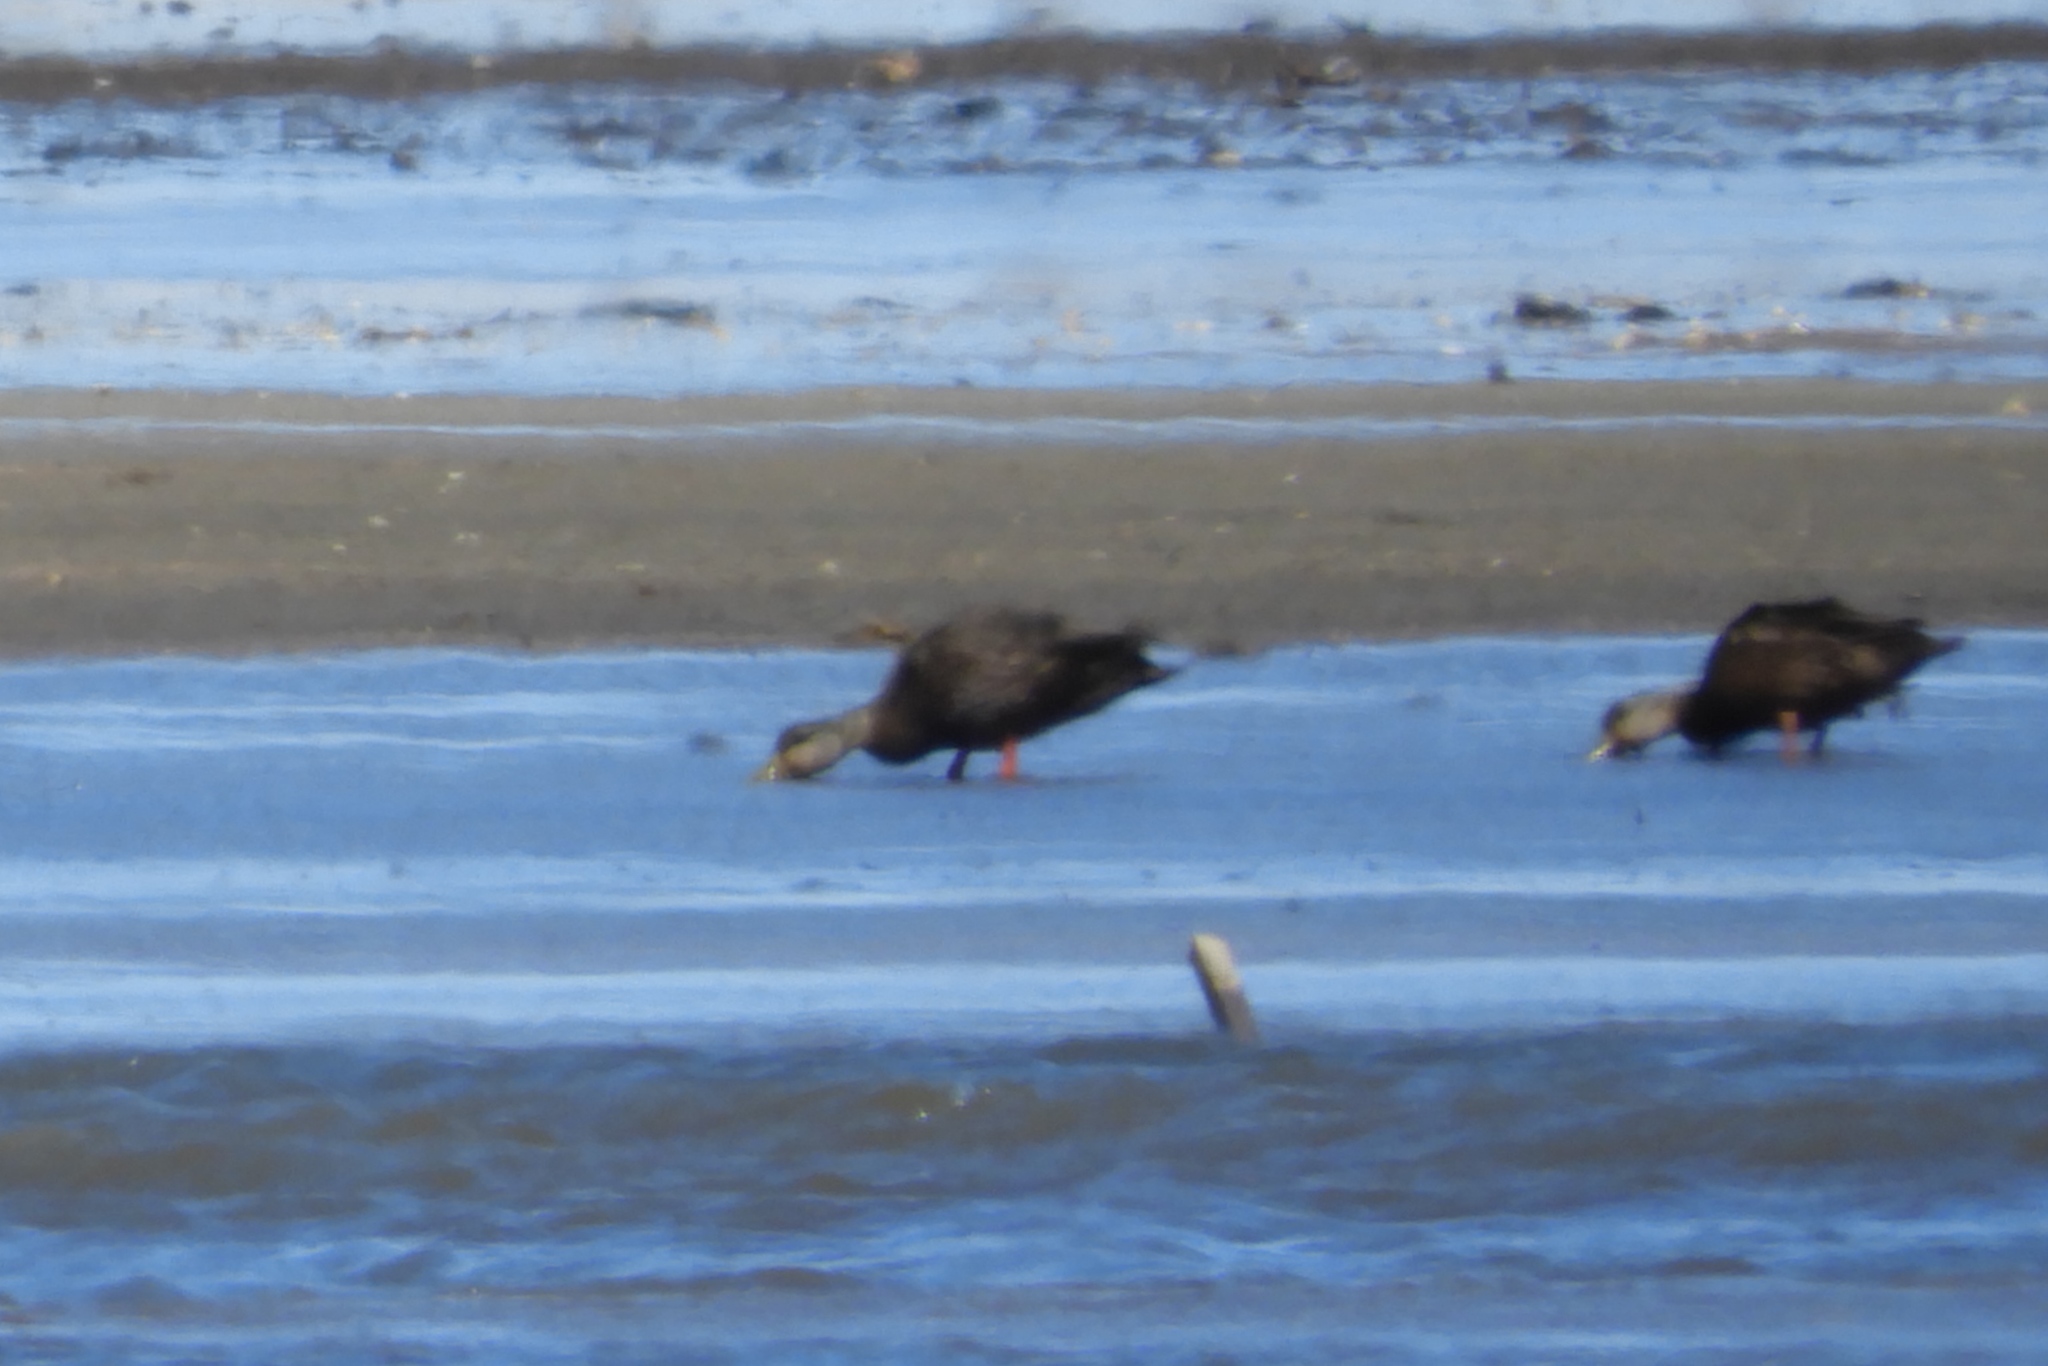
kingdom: Animalia
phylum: Chordata
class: Aves
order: Anseriformes
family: Anatidae
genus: Anas
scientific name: Anas rubripes
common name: American black duck
